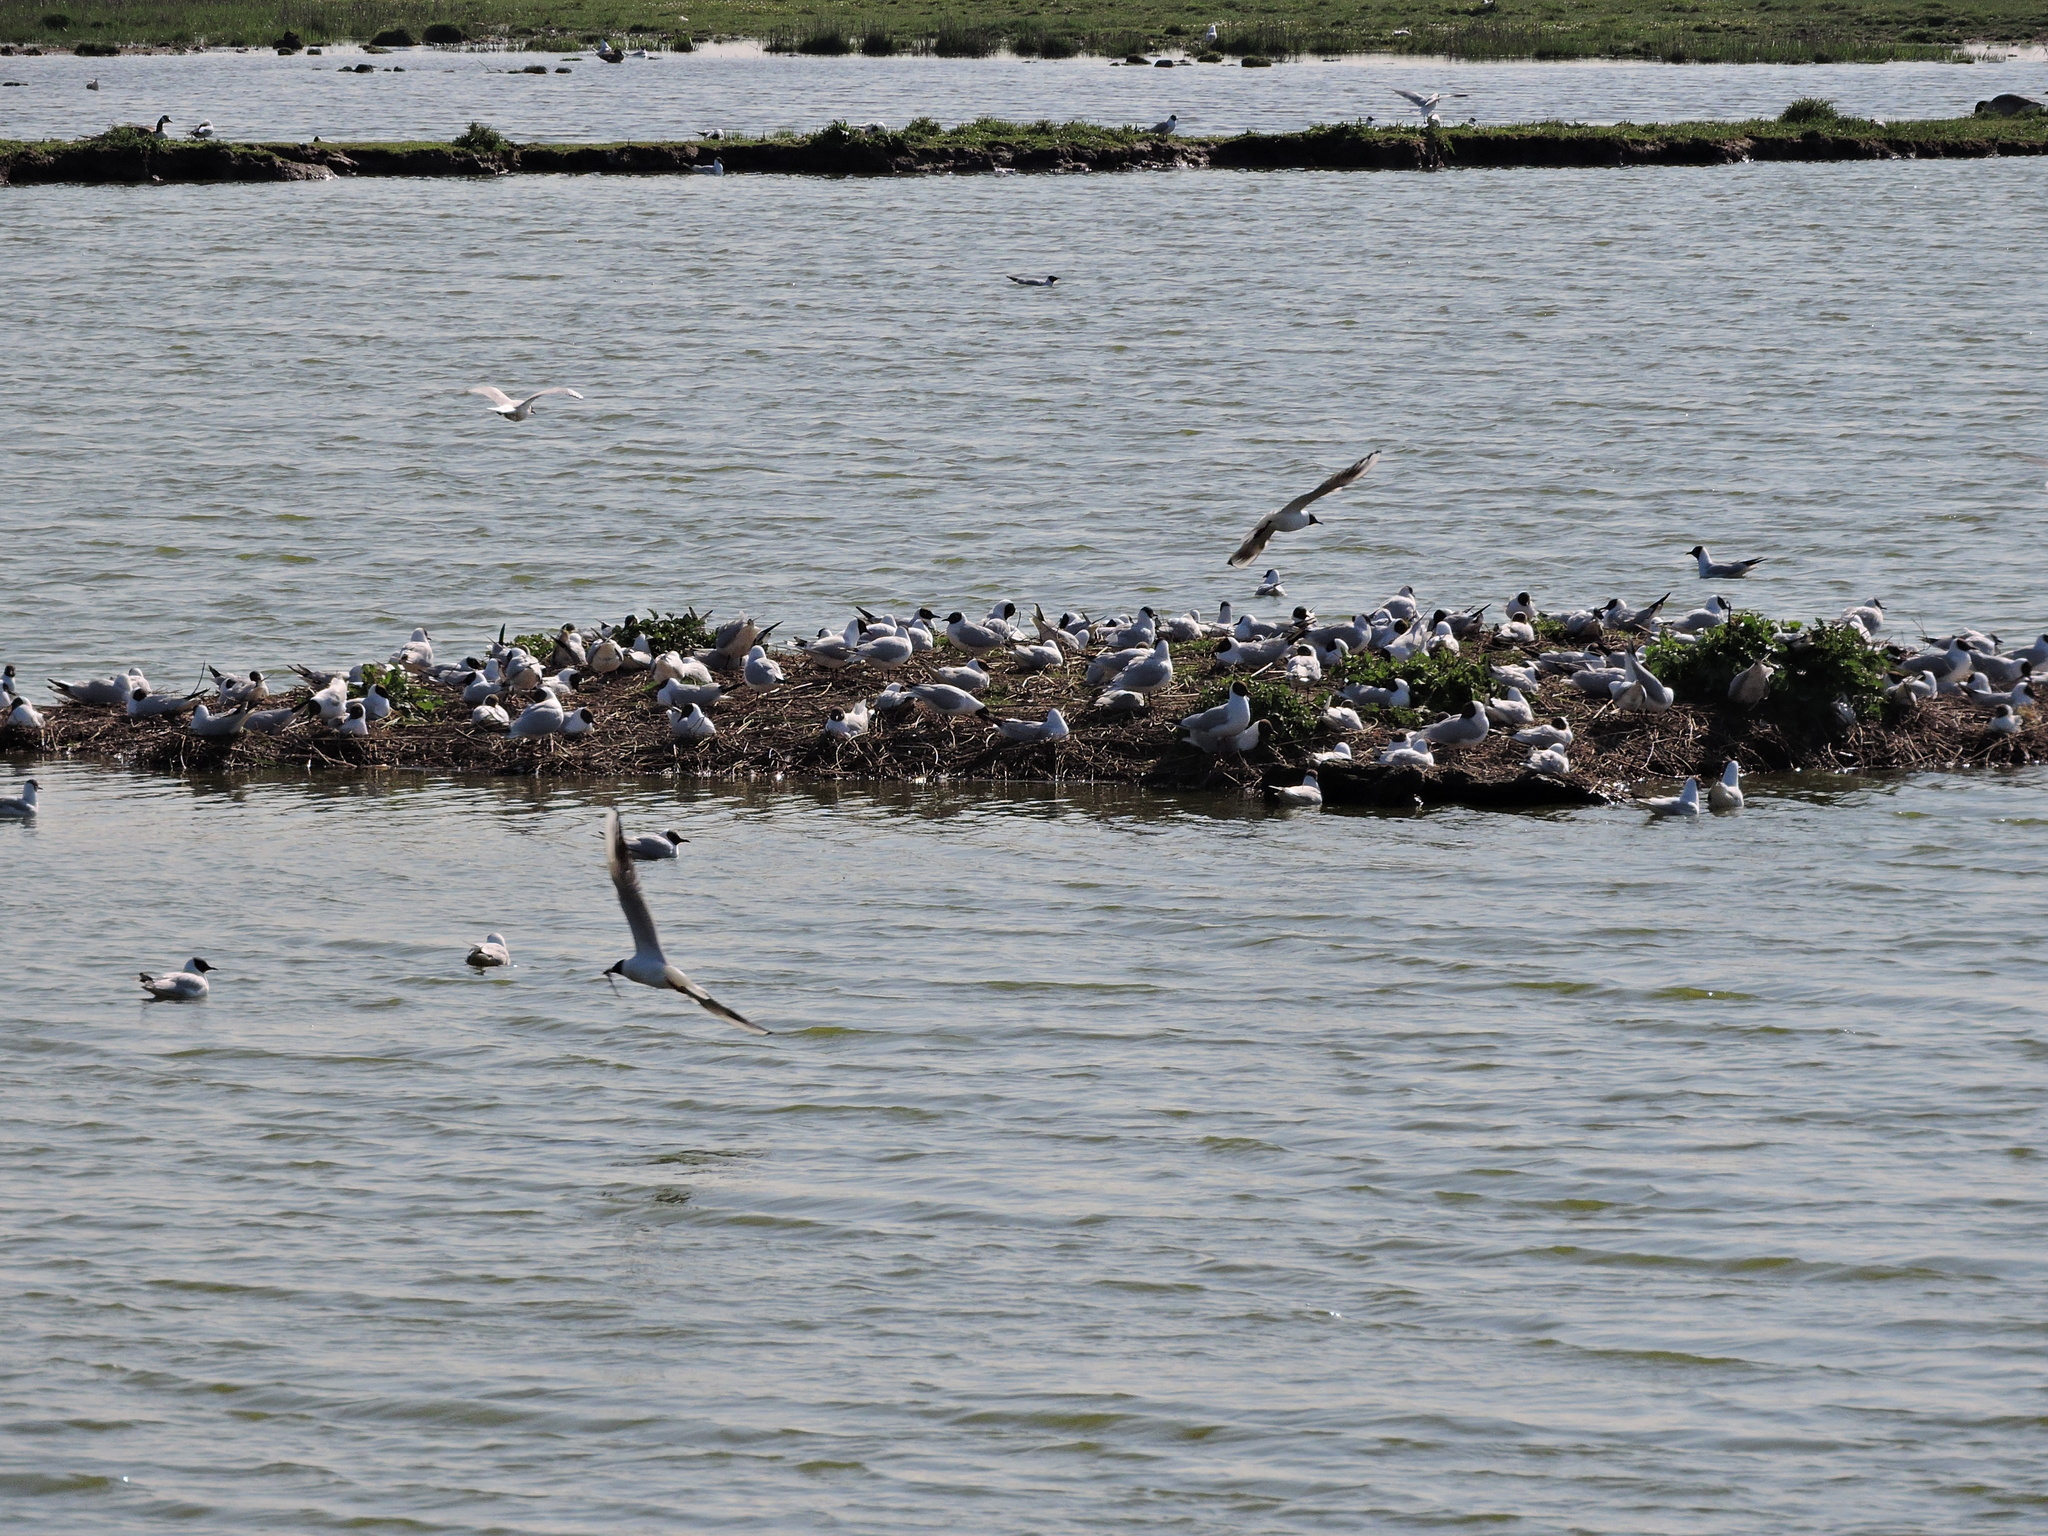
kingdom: Animalia
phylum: Chordata
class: Aves
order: Charadriiformes
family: Laridae
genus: Chroicocephalus
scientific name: Chroicocephalus ridibundus
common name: Black-headed gull
